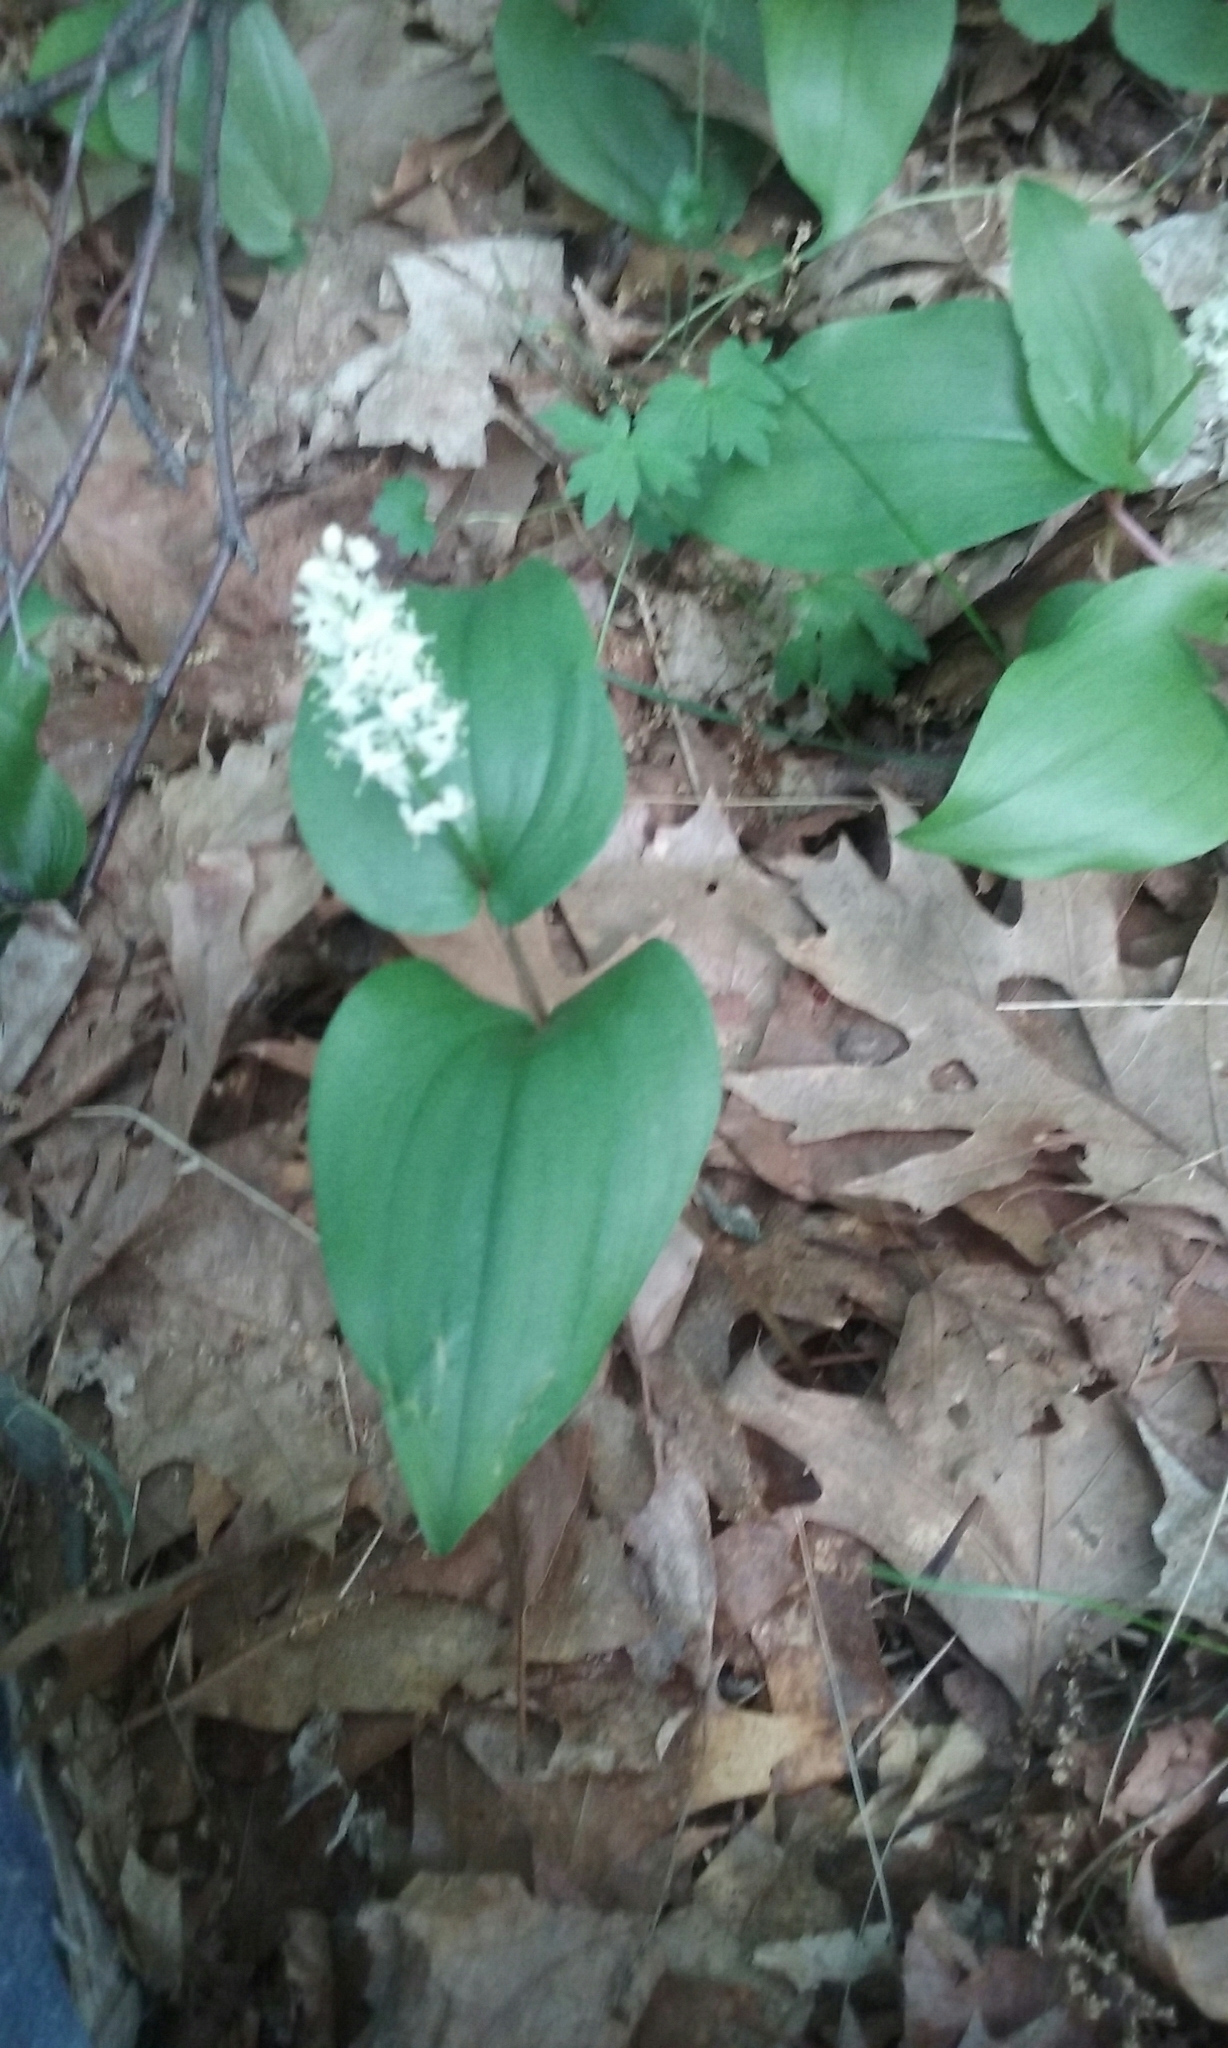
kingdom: Plantae
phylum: Tracheophyta
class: Liliopsida
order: Asparagales
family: Asparagaceae
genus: Maianthemum
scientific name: Maianthemum canadense
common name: False lily-of-the-valley
